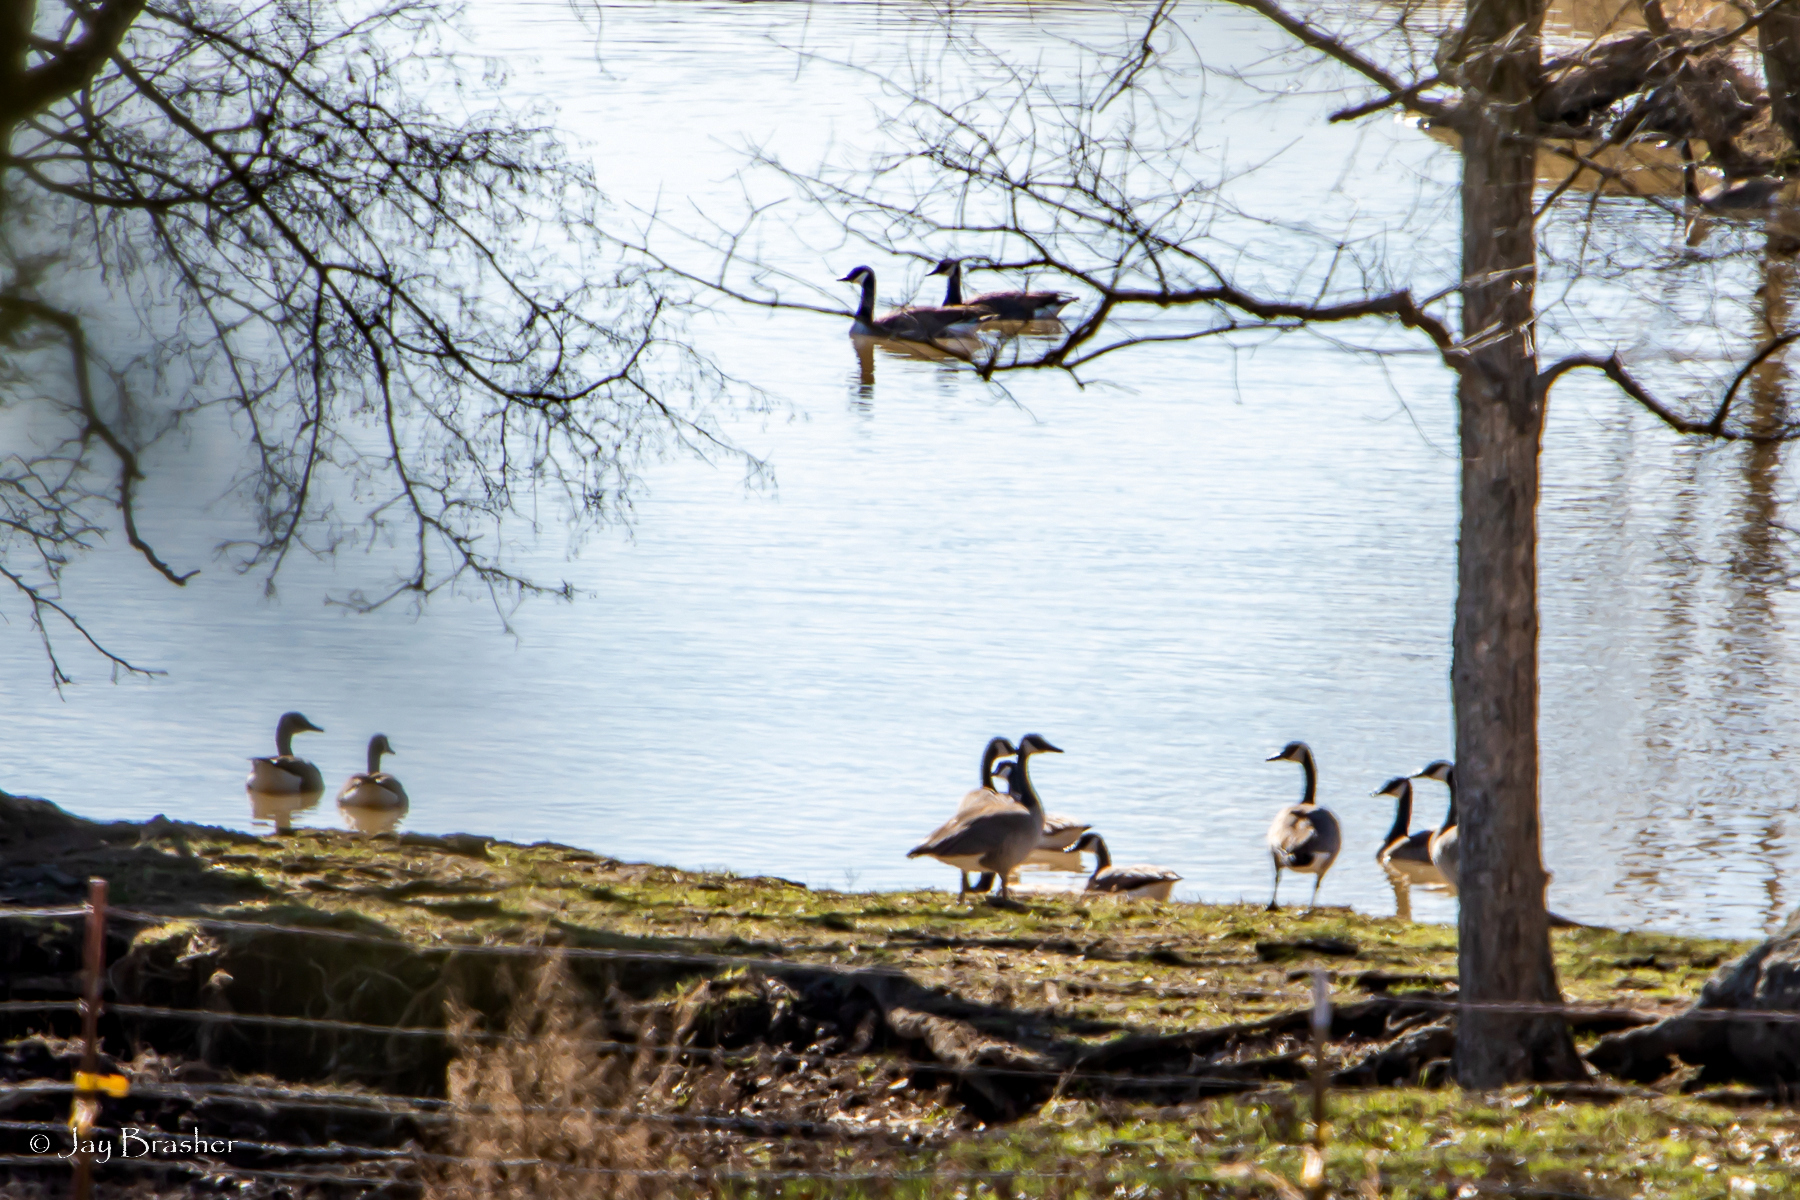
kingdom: Animalia
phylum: Chordata
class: Aves
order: Anseriformes
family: Anatidae
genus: Branta
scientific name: Branta canadensis
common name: Canada goose
